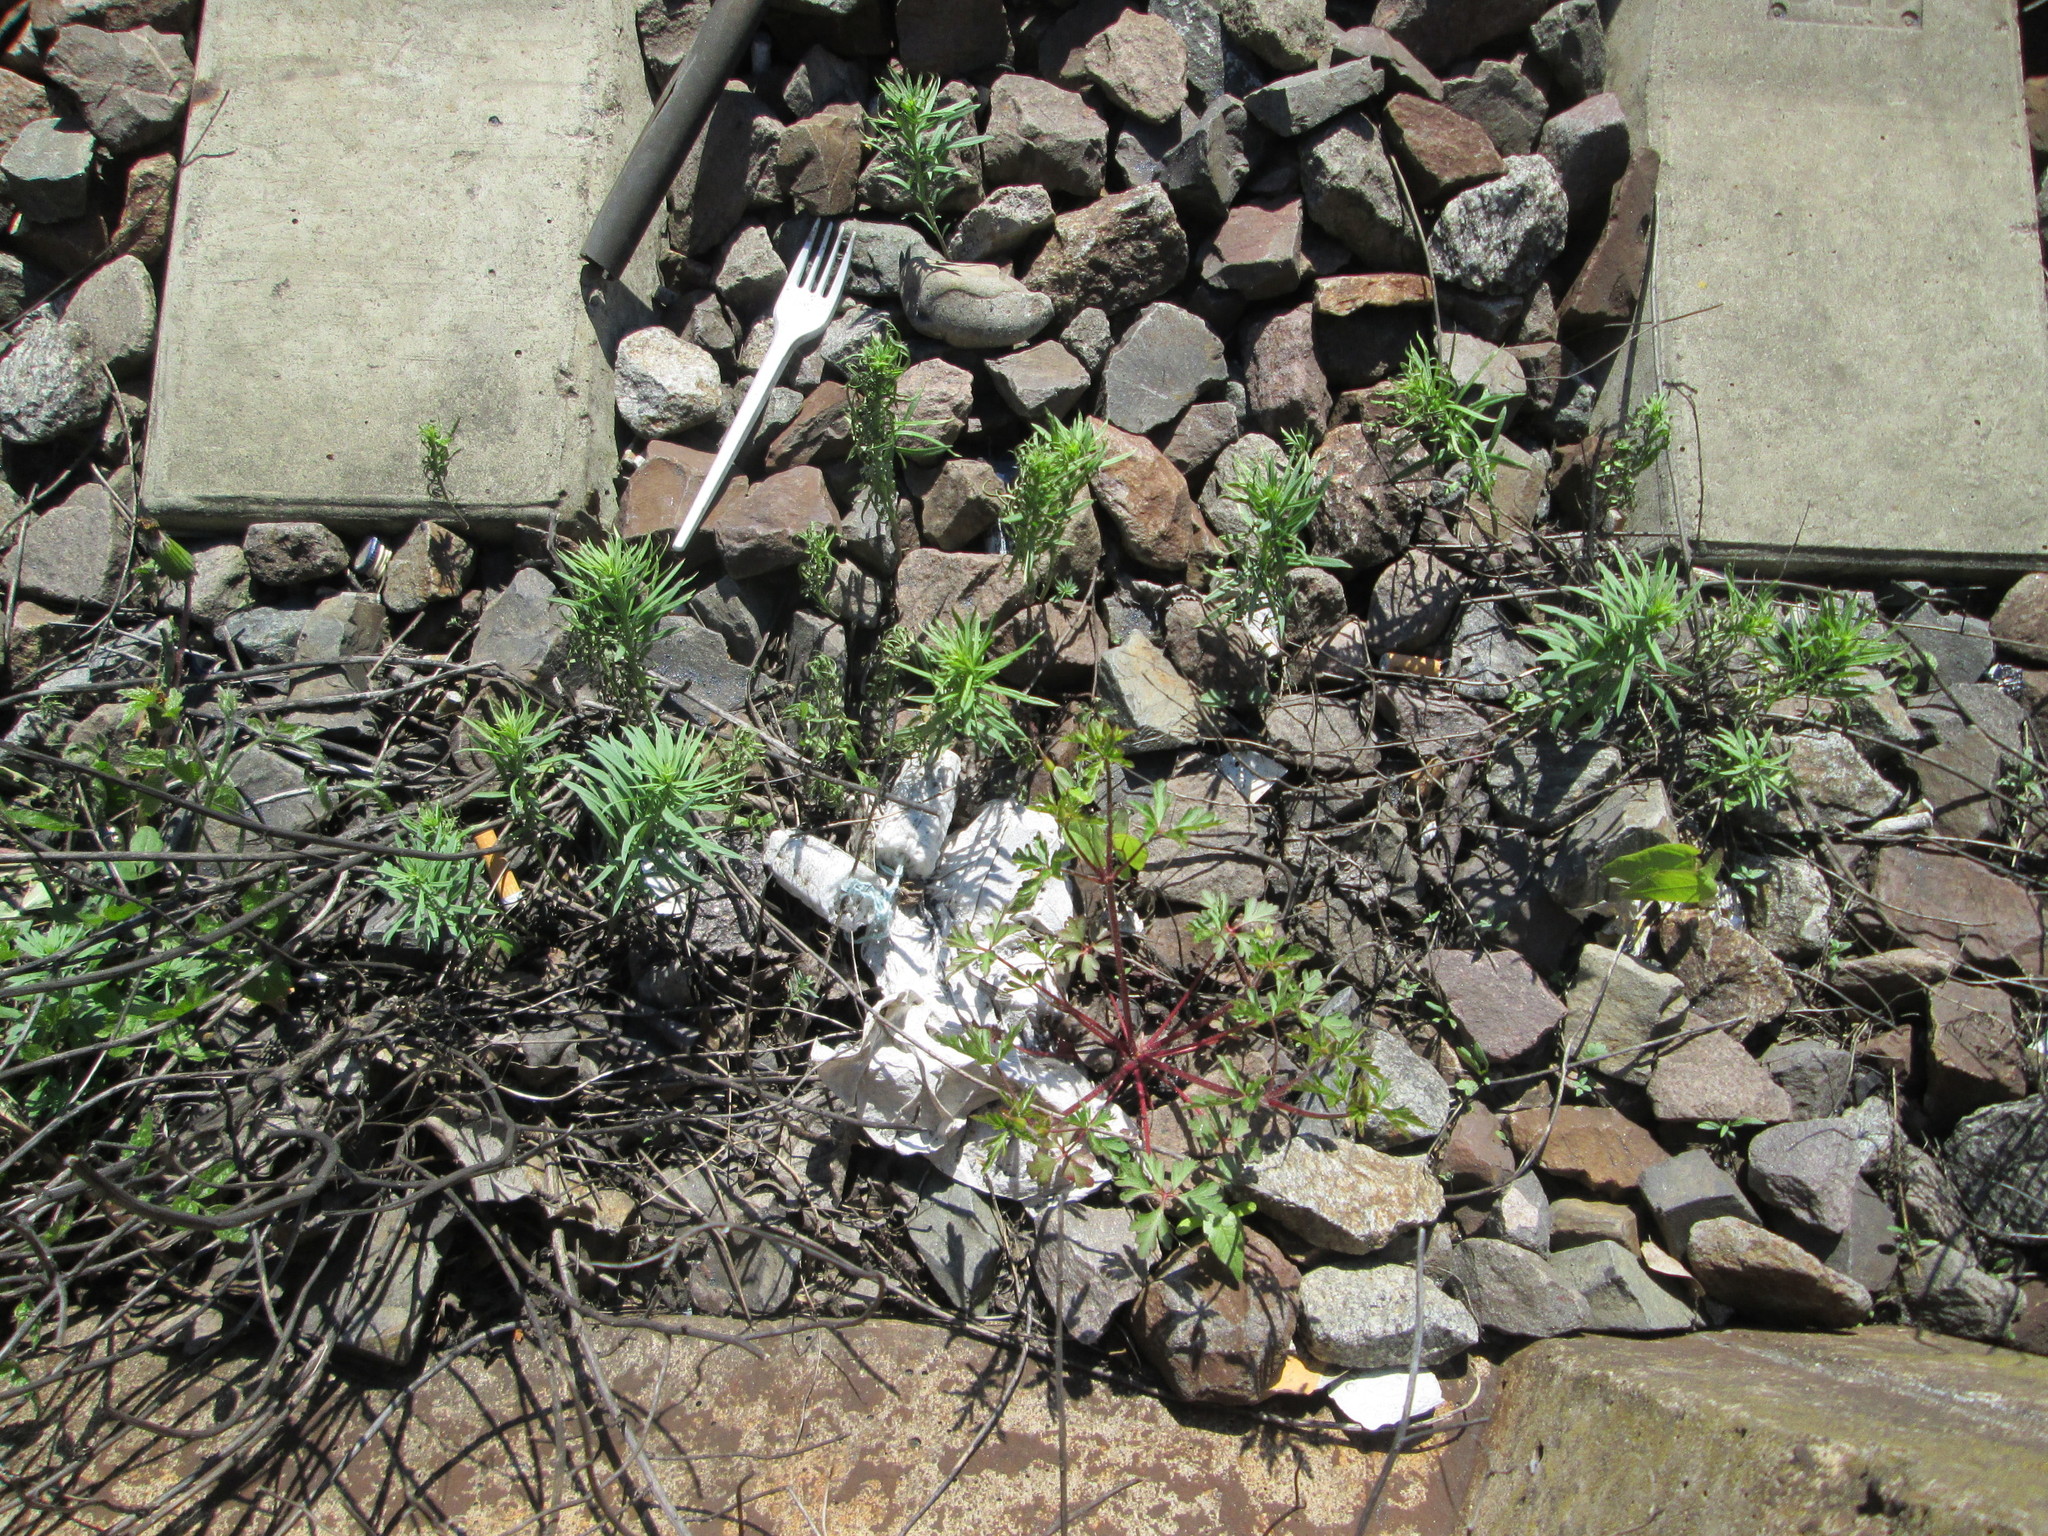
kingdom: Plantae
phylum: Tracheophyta
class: Magnoliopsida
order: Lamiales
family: Plantaginaceae
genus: Linaria
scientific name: Linaria vulgaris
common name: Butter and eggs
